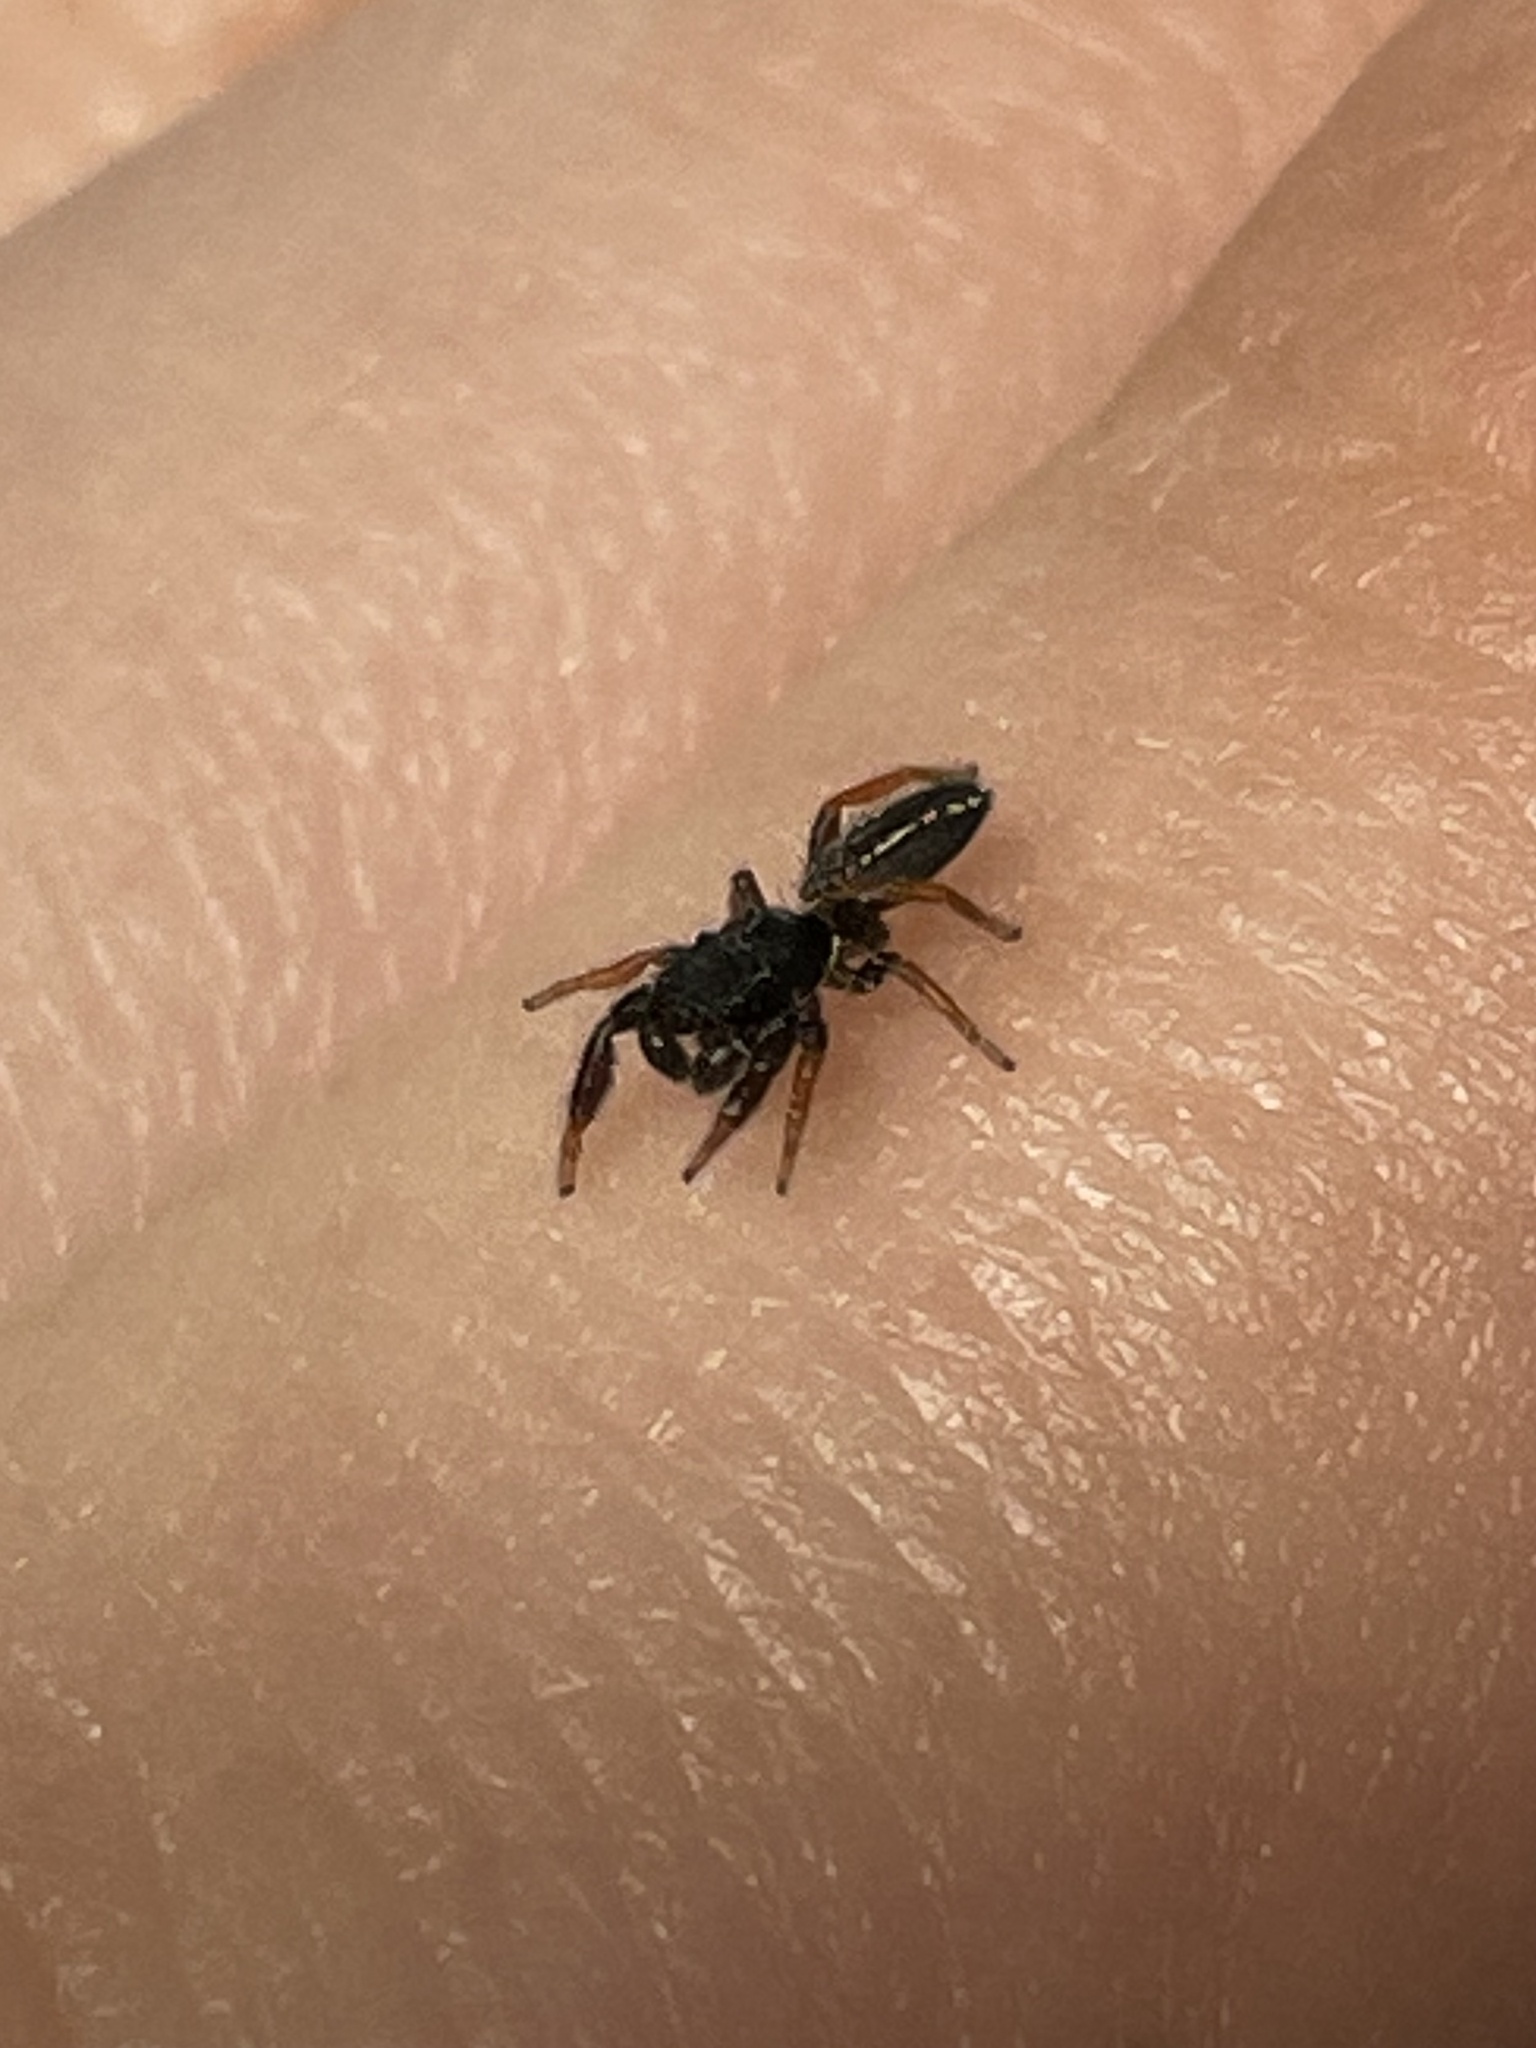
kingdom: Animalia
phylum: Arthropoda
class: Arachnida
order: Araneae
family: Salticidae
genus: Metacyrba
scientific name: Metacyrba taeniola
